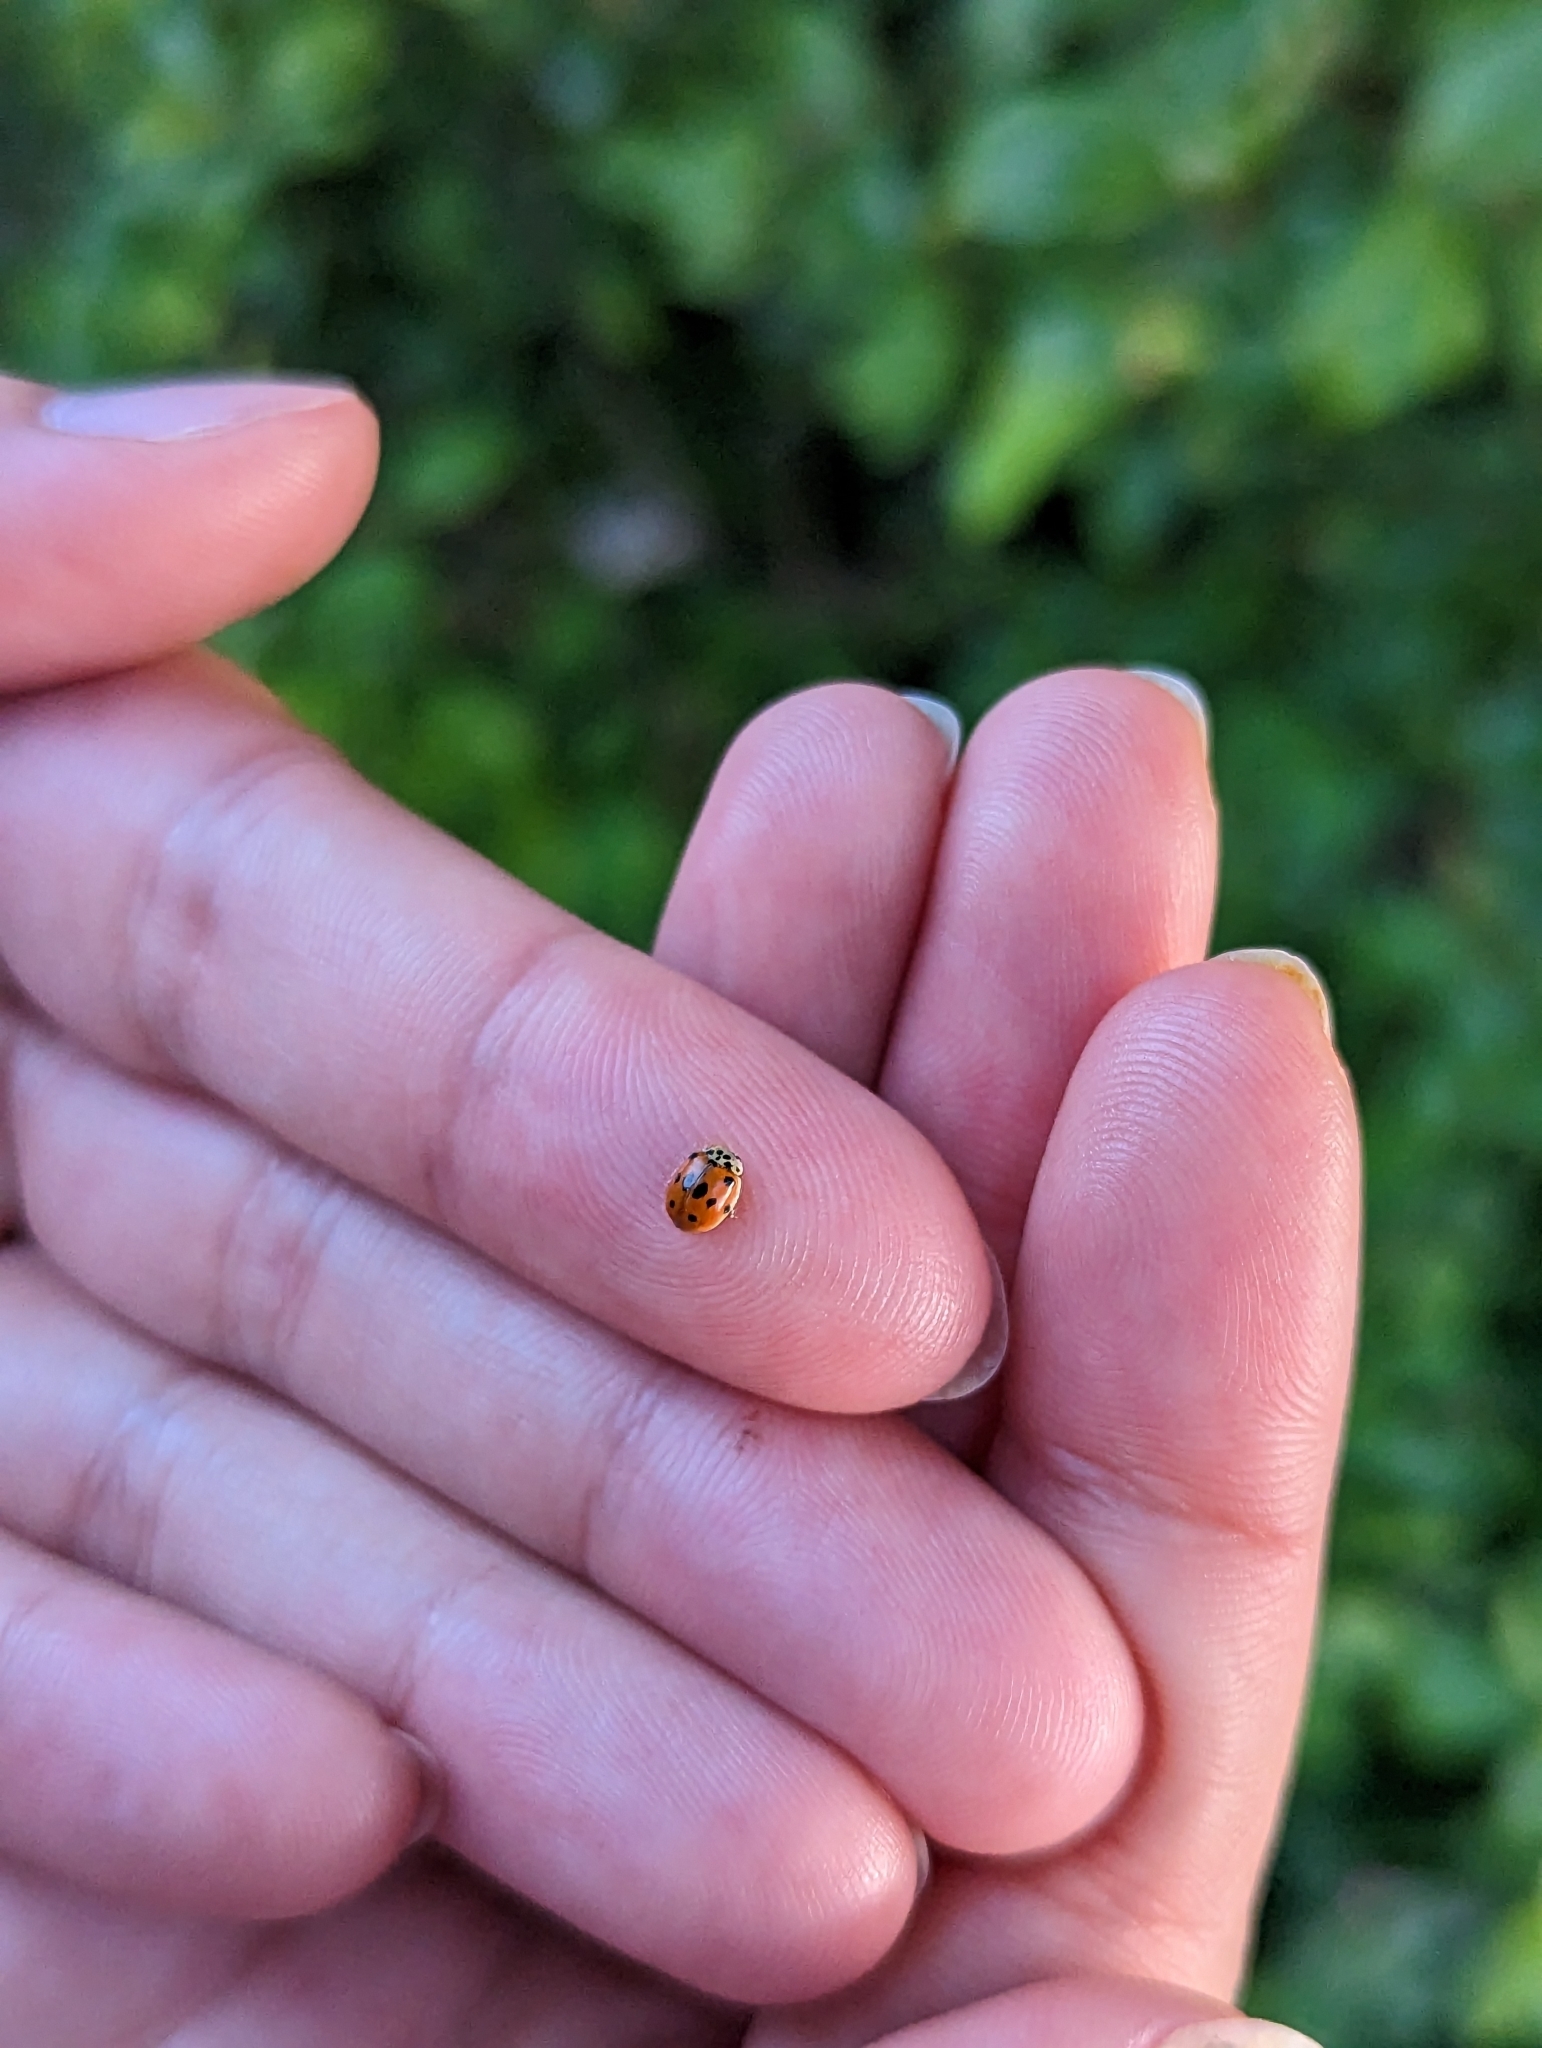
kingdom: Animalia
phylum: Arthropoda
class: Insecta
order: Coleoptera
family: Coccinellidae
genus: Adalia
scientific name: Adalia decempunctata
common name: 10-spot ladybird
